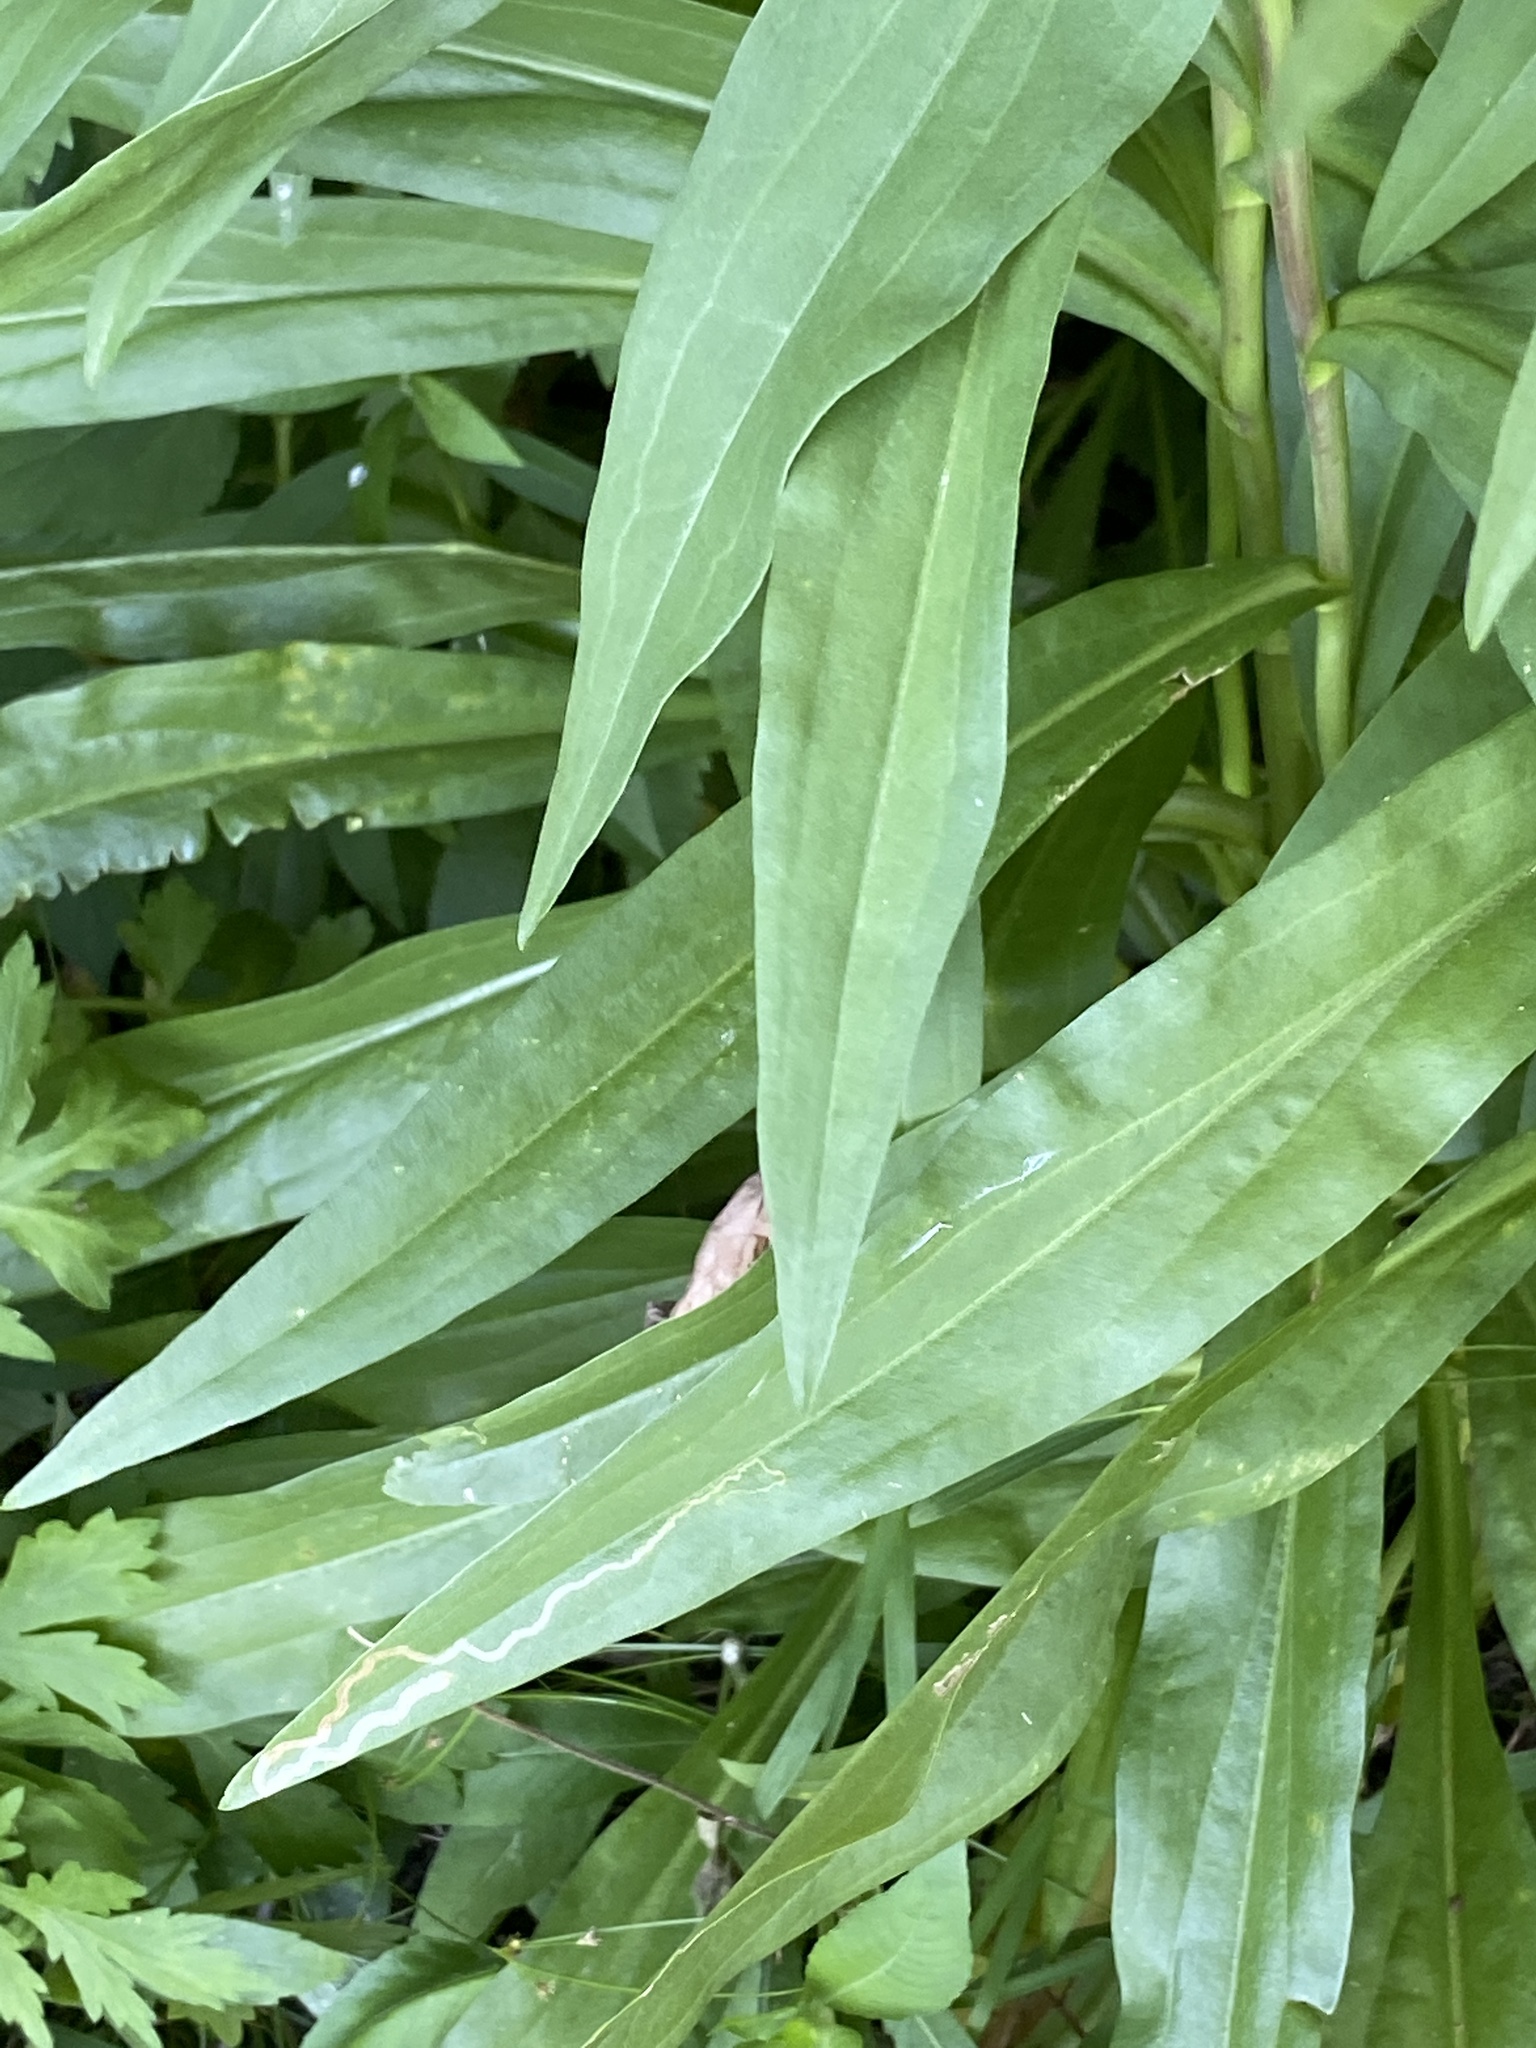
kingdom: Plantae
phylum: Tracheophyta
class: Magnoliopsida
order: Asterales
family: Asteraceae
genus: Solidago
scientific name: Solidago sempervirens
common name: Salt-marsh goldenrod
